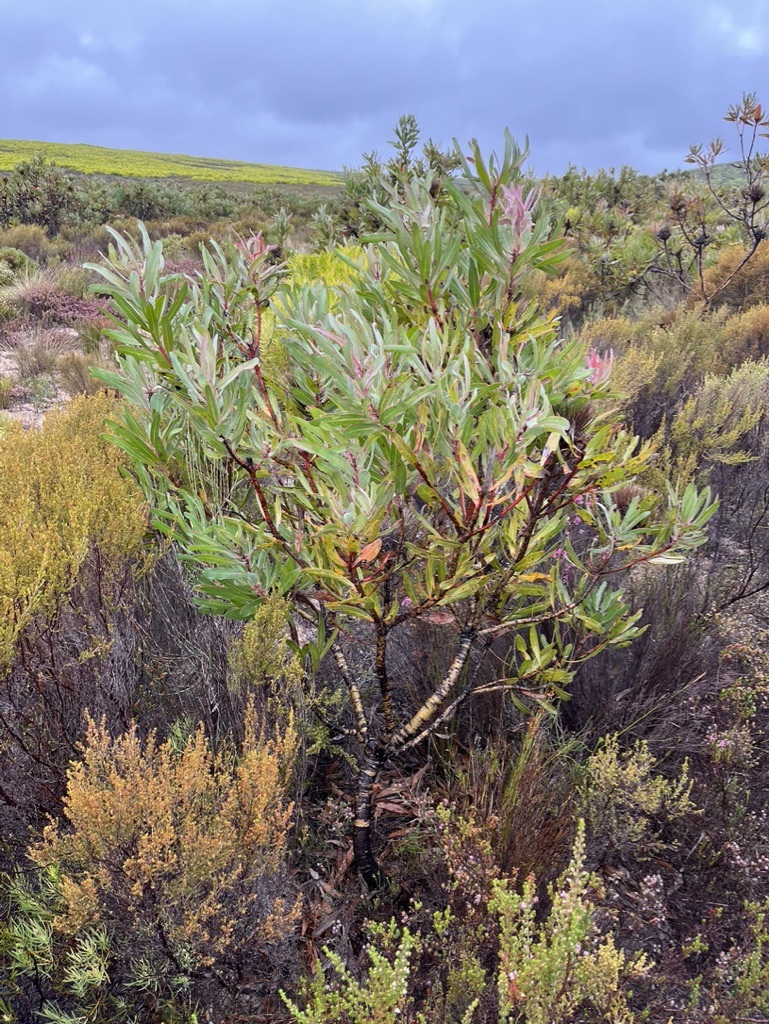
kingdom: Plantae
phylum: Tracheophyta
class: Magnoliopsida
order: Proteales
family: Proteaceae
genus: Protea
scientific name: Protea susannae
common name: Foetid-leaf sugarbush
